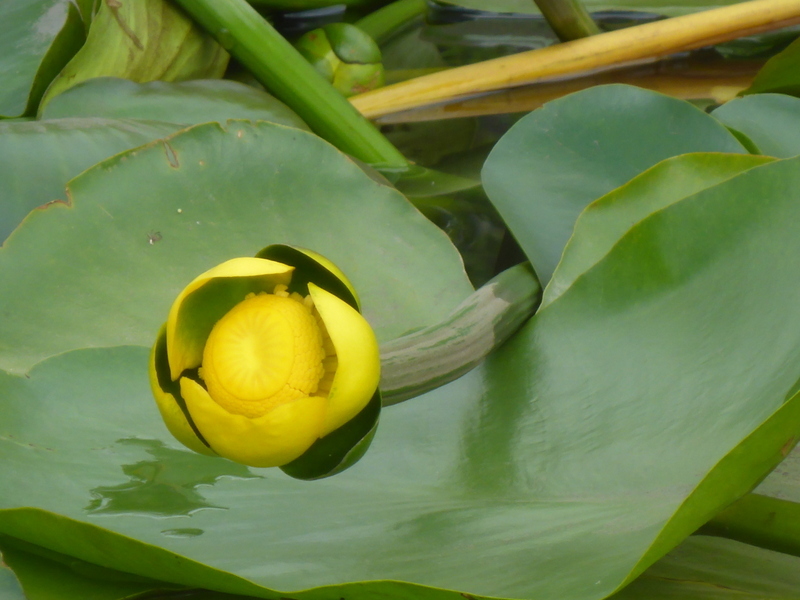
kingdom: Plantae
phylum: Tracheophyta
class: Magnoliopsida
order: Nymphaeales
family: Nymphaeaceae
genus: Nuphar
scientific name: Nuphar advena
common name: Spatter-dock
